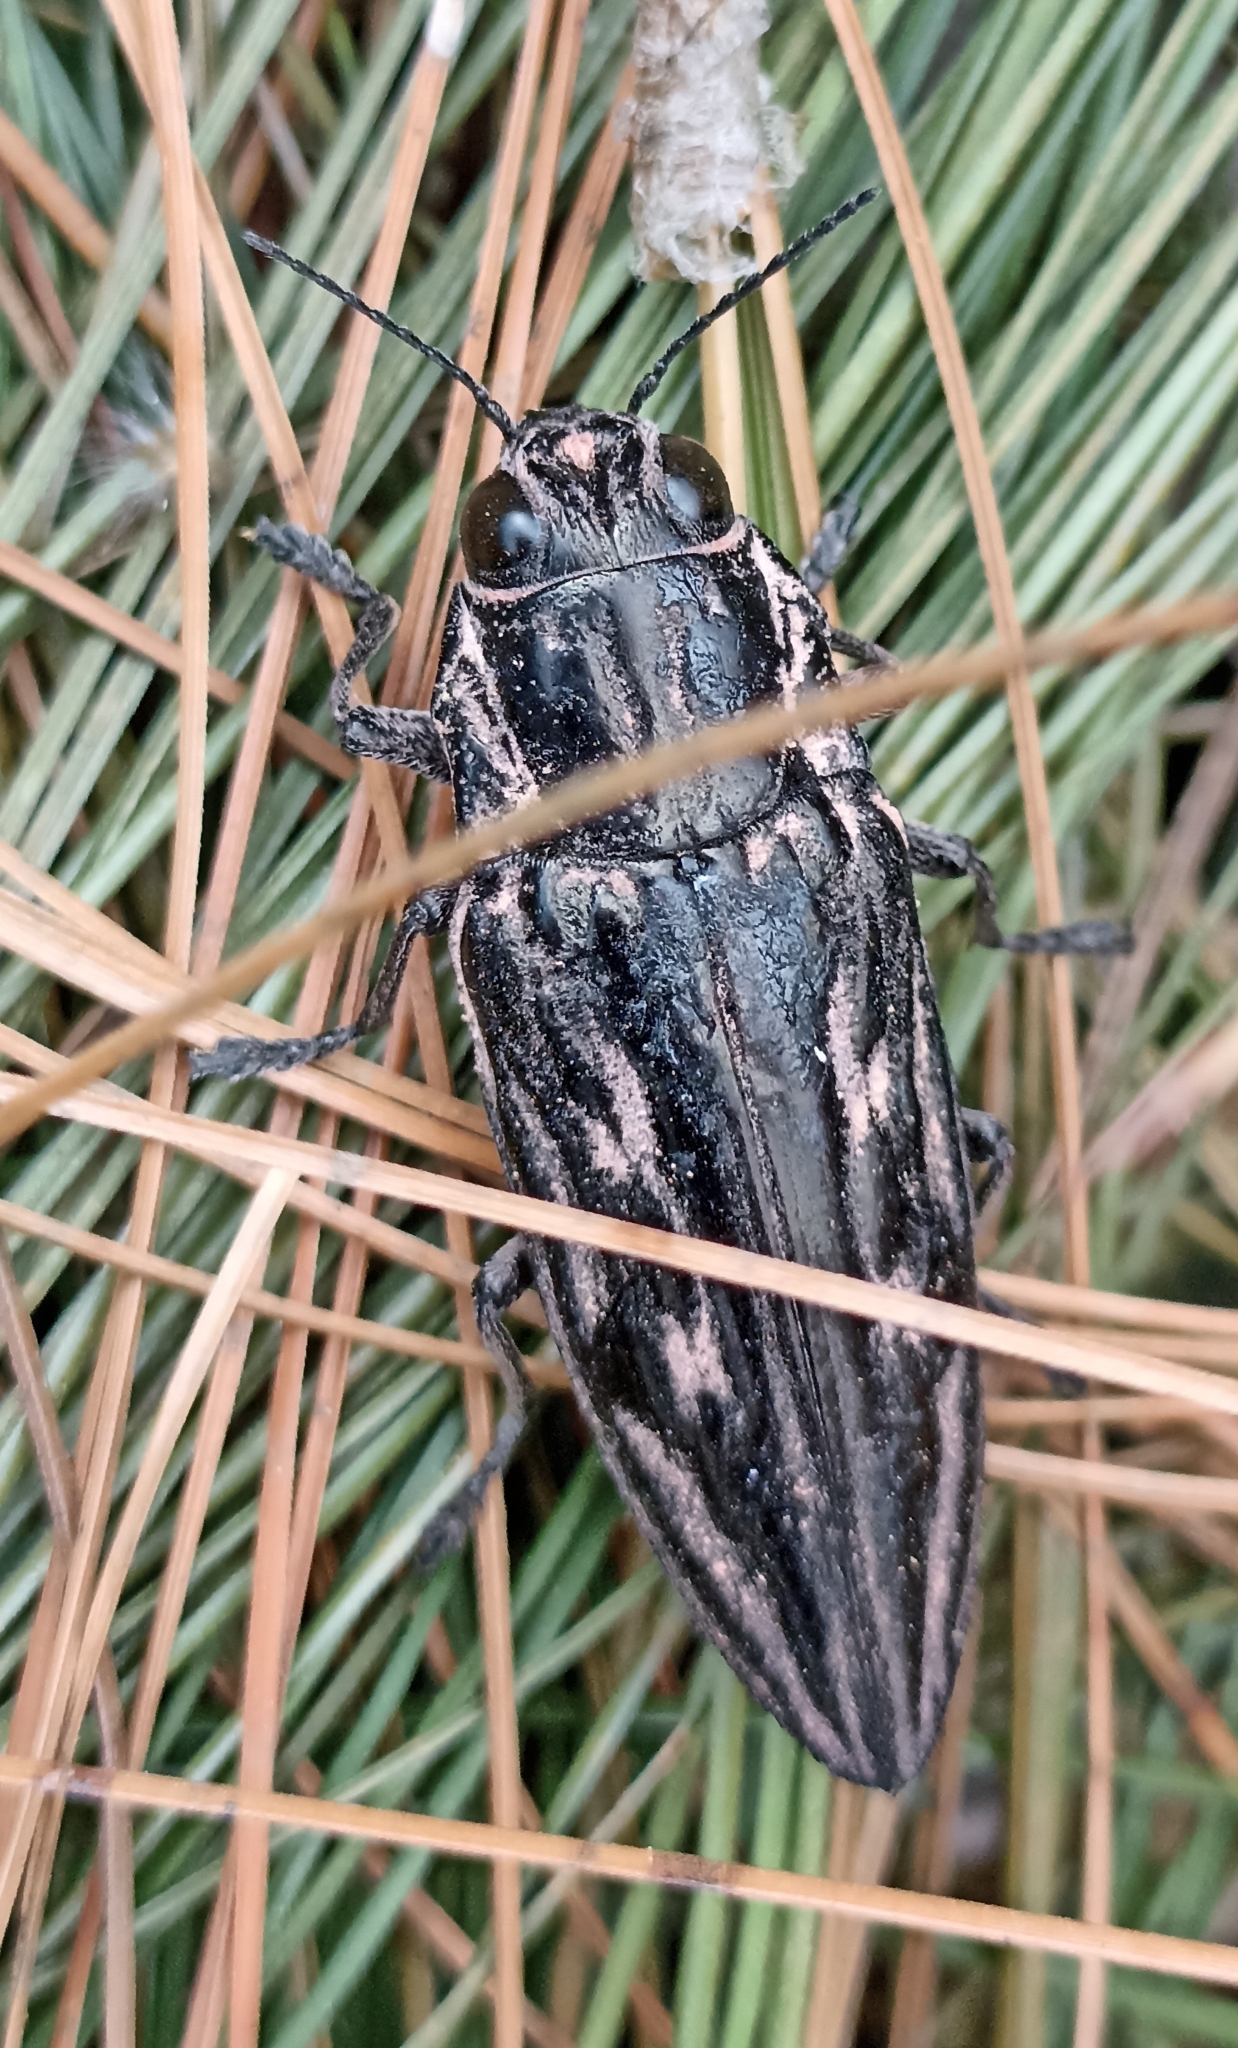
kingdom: Animalia
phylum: Arthropoda
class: Insecta
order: Coleoptera
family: Buprestidae
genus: Chalcophora
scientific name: Chalcophora mexicana
